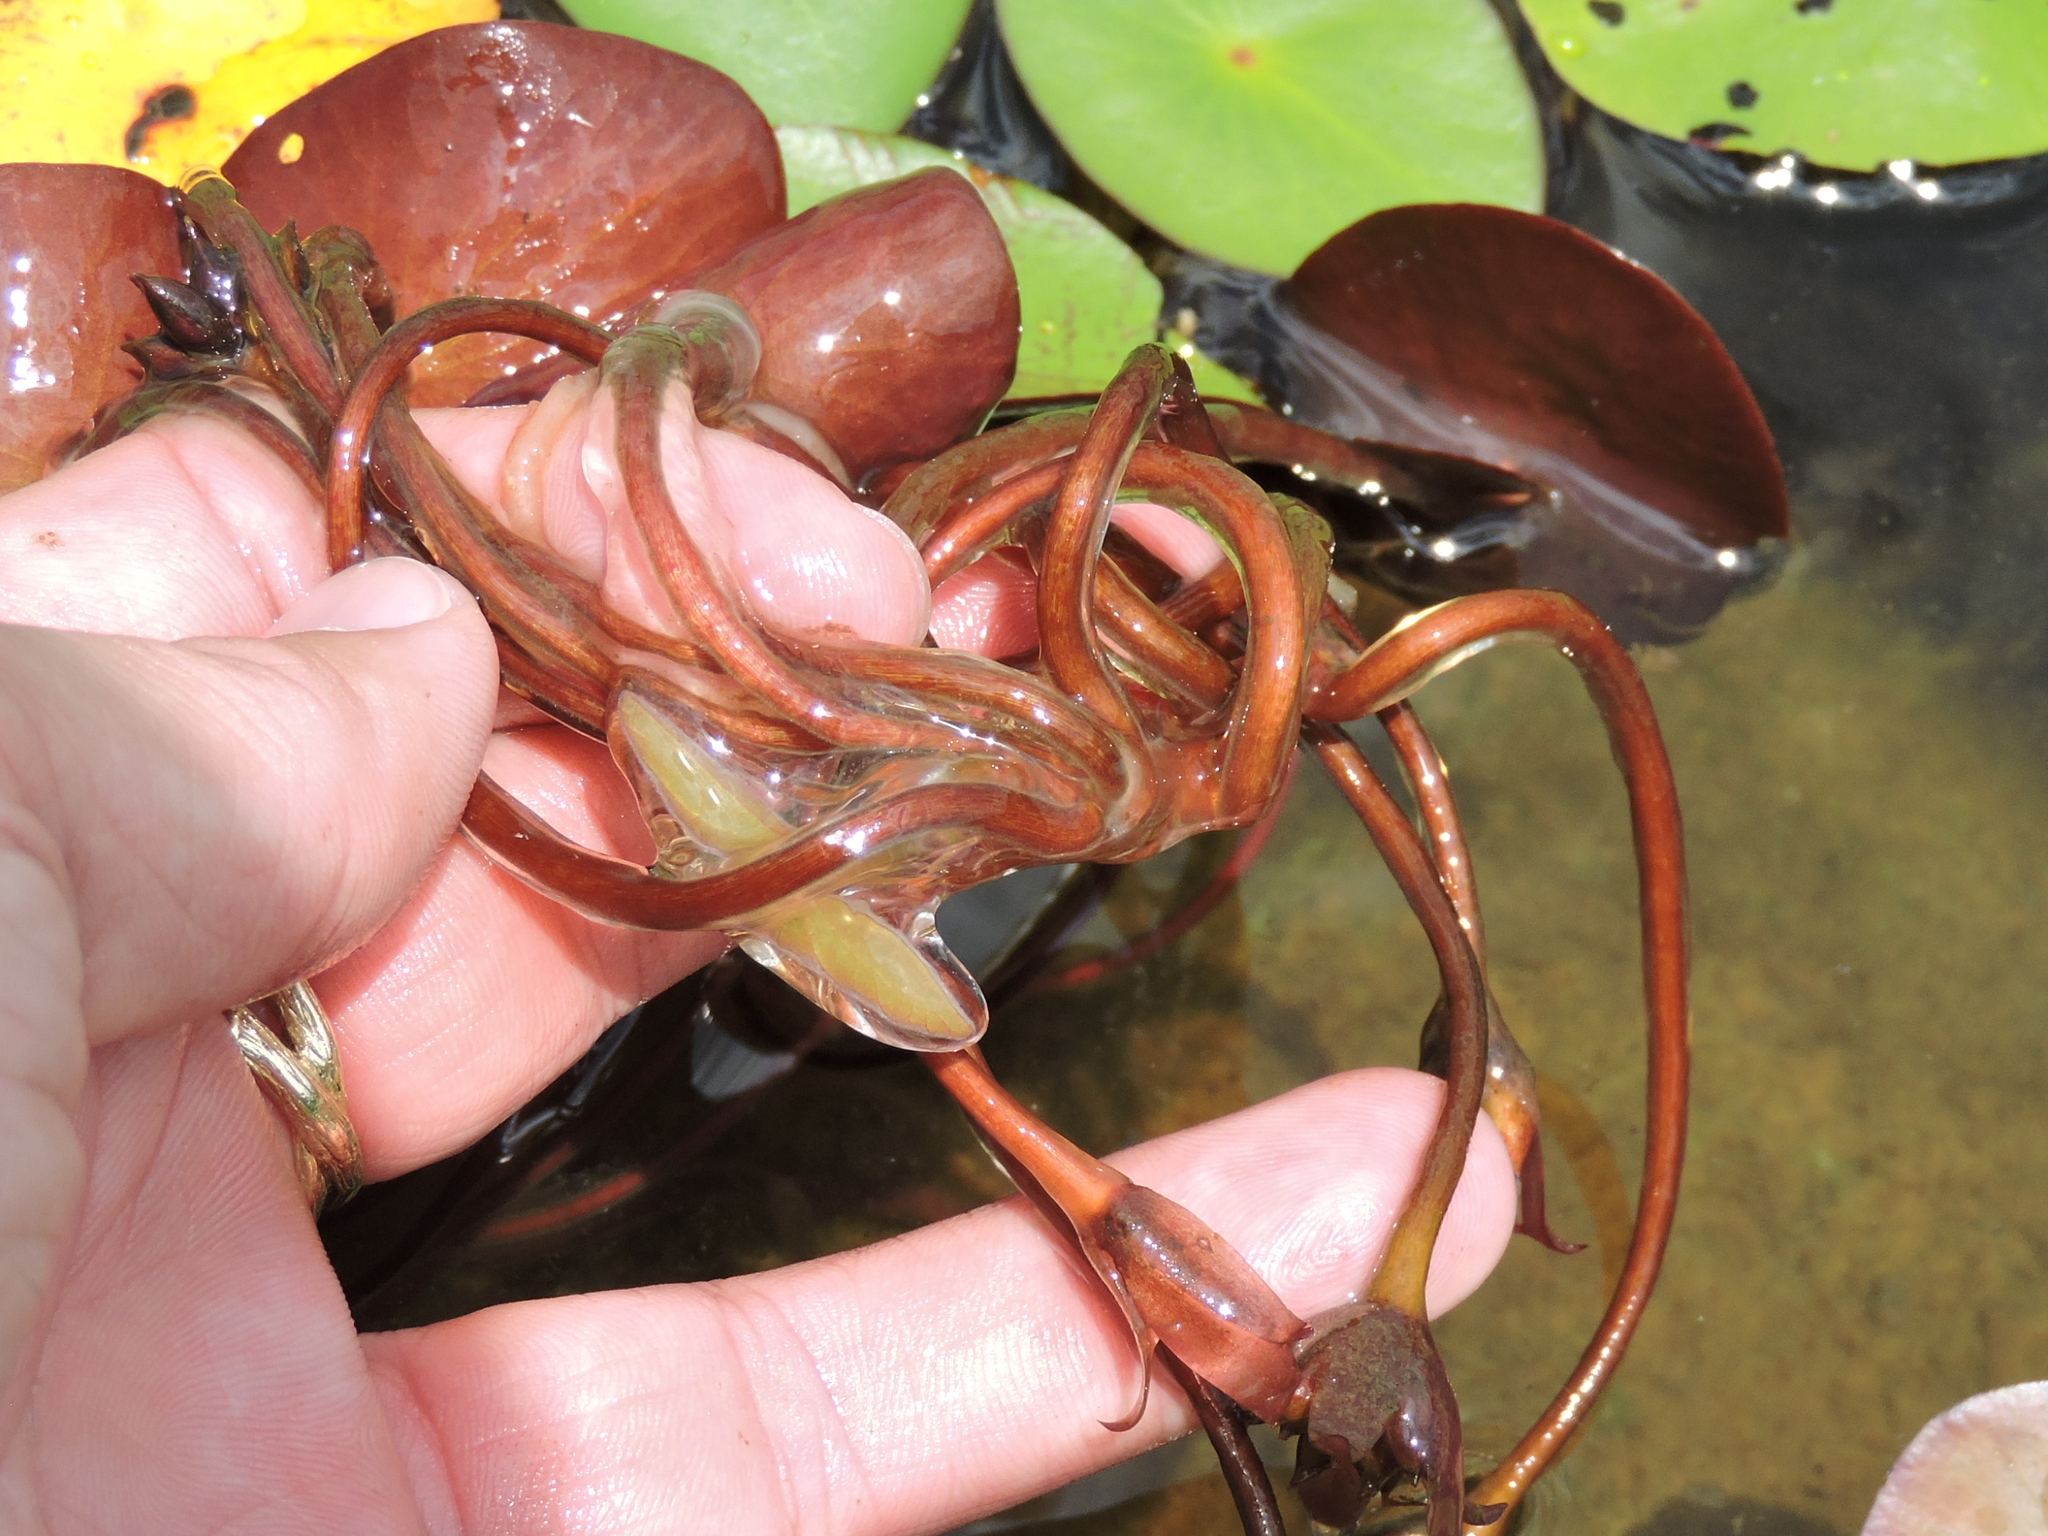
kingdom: Plantae
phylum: Tracheophyta
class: Magnoliopsida
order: Nymphaeales
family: Cabombaceae
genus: Brasenia
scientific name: Brasenia schreberi
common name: Water-shield
